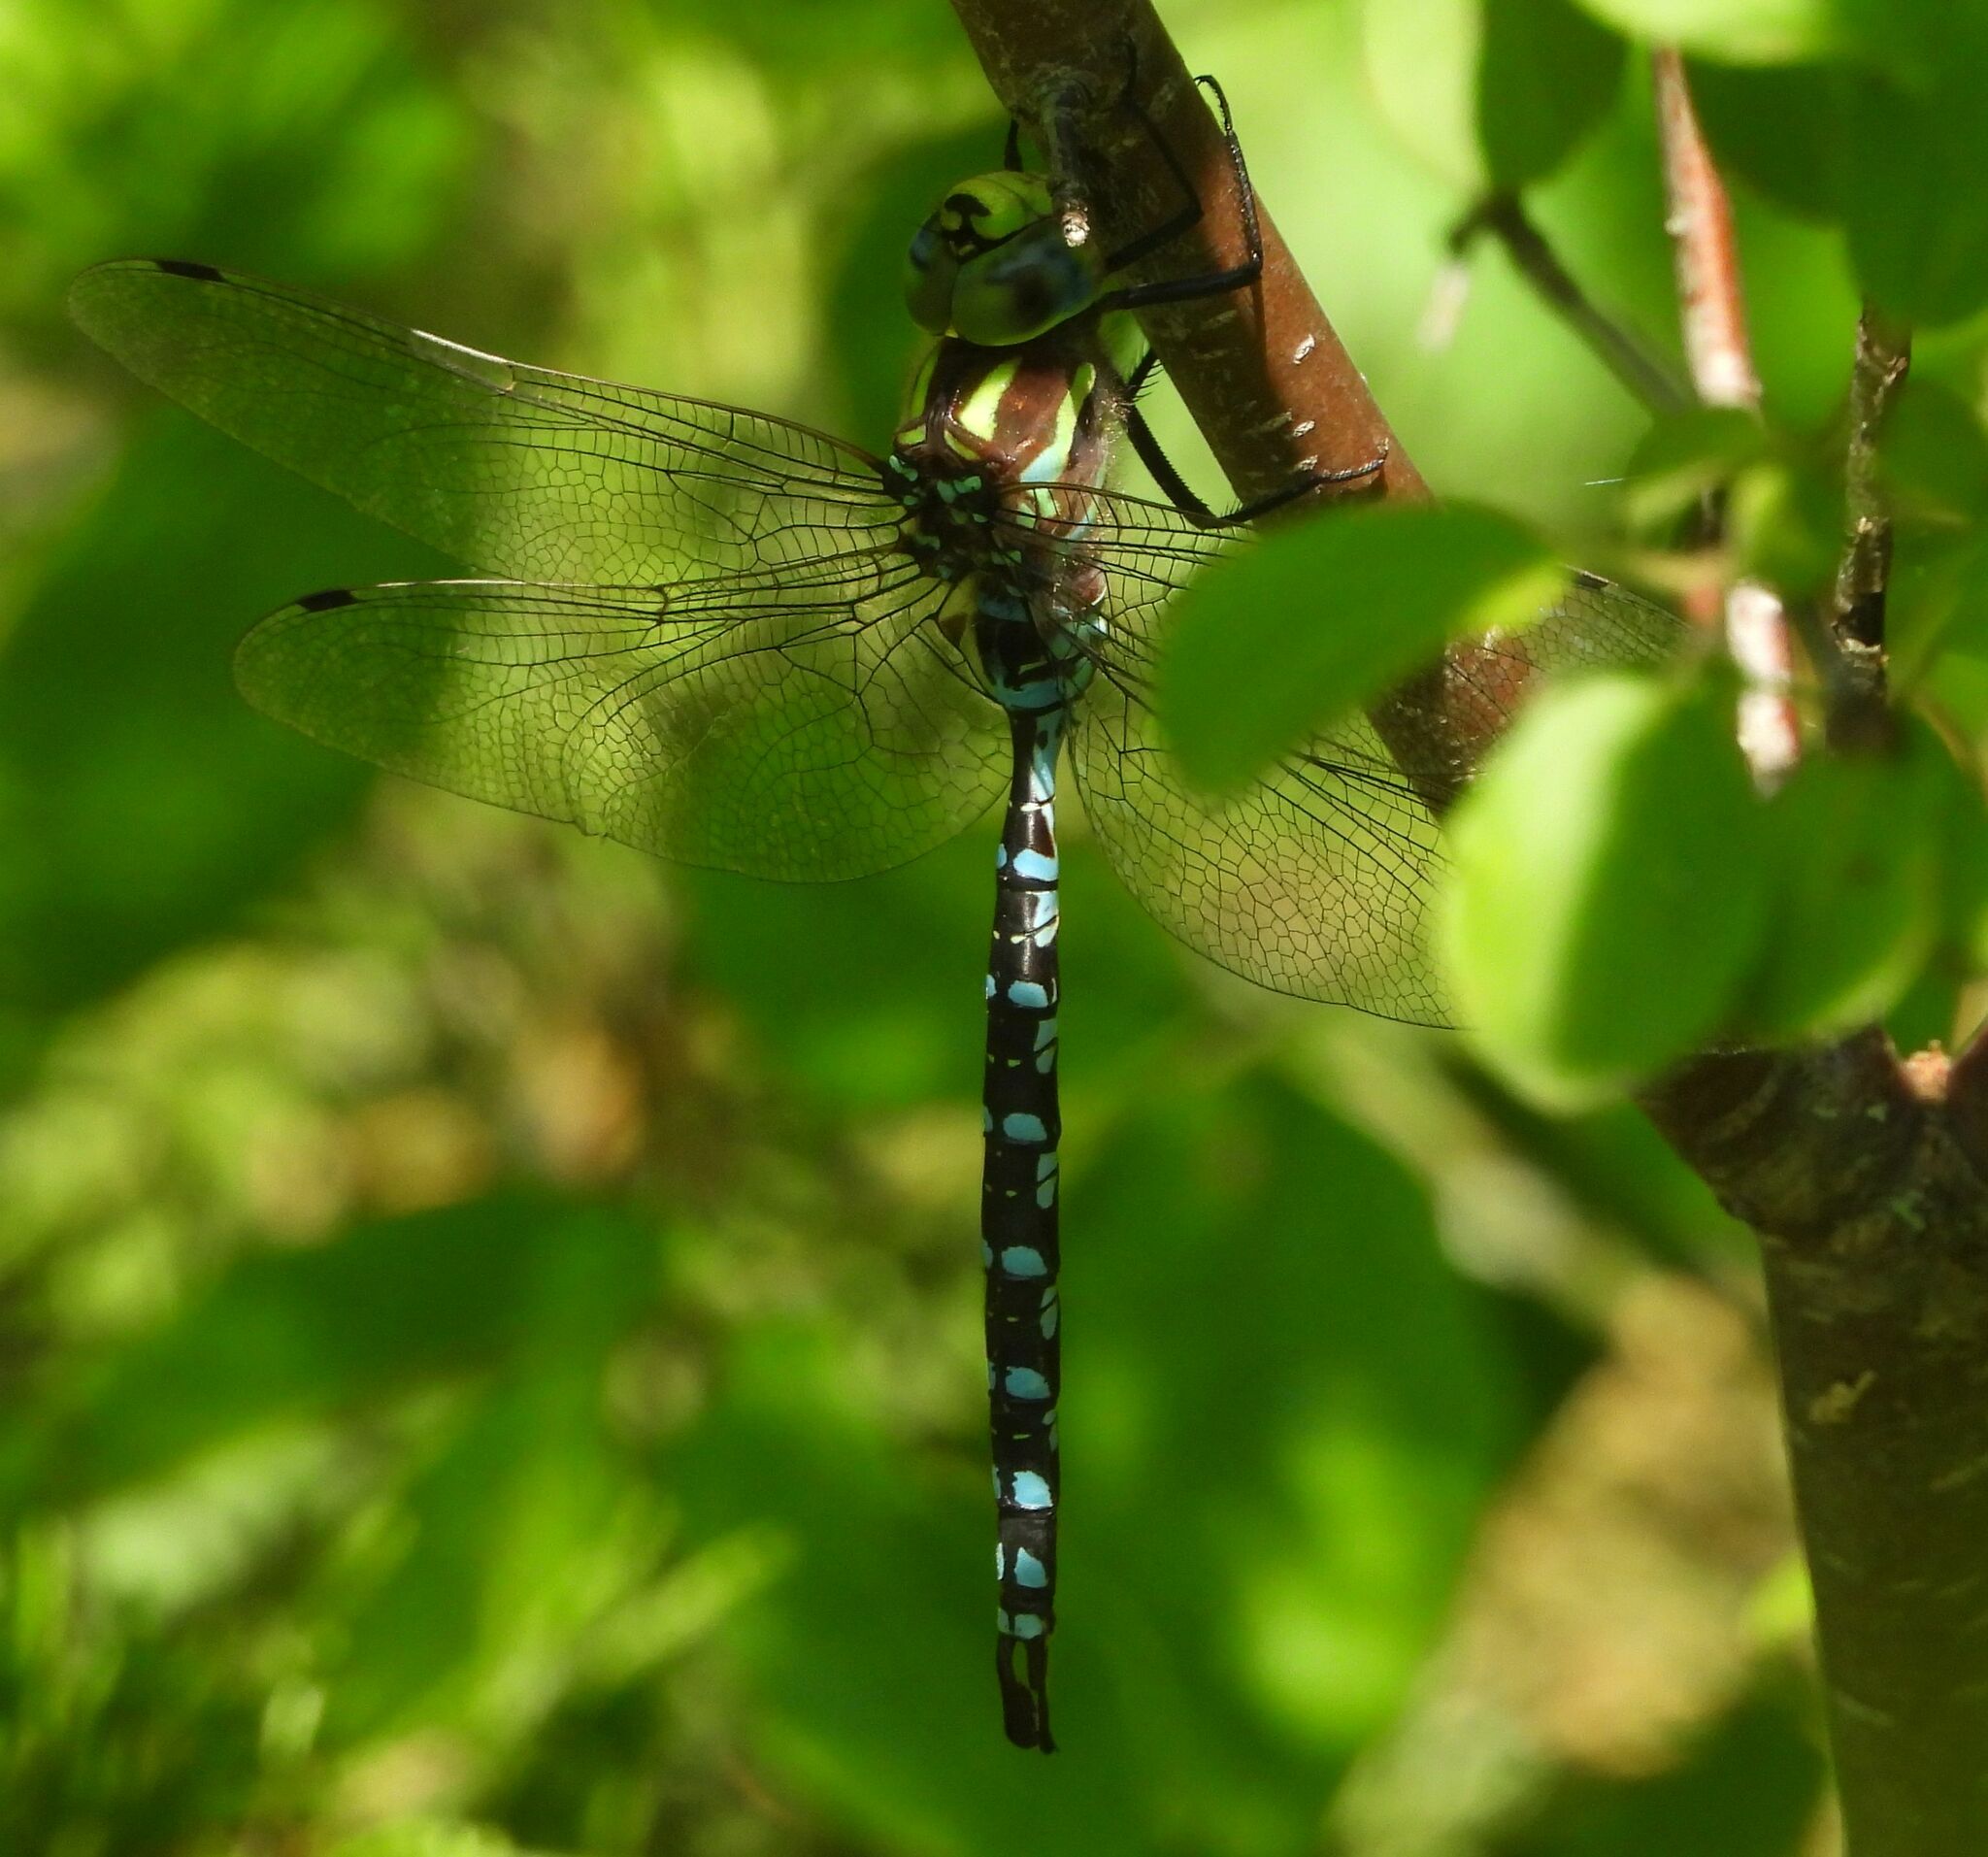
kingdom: Animalia
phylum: Arthropoda
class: Insecta
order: Odonata
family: Aeshnidae
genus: Aeshna
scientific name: Aeshna constricta
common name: Lance-tipped darner
